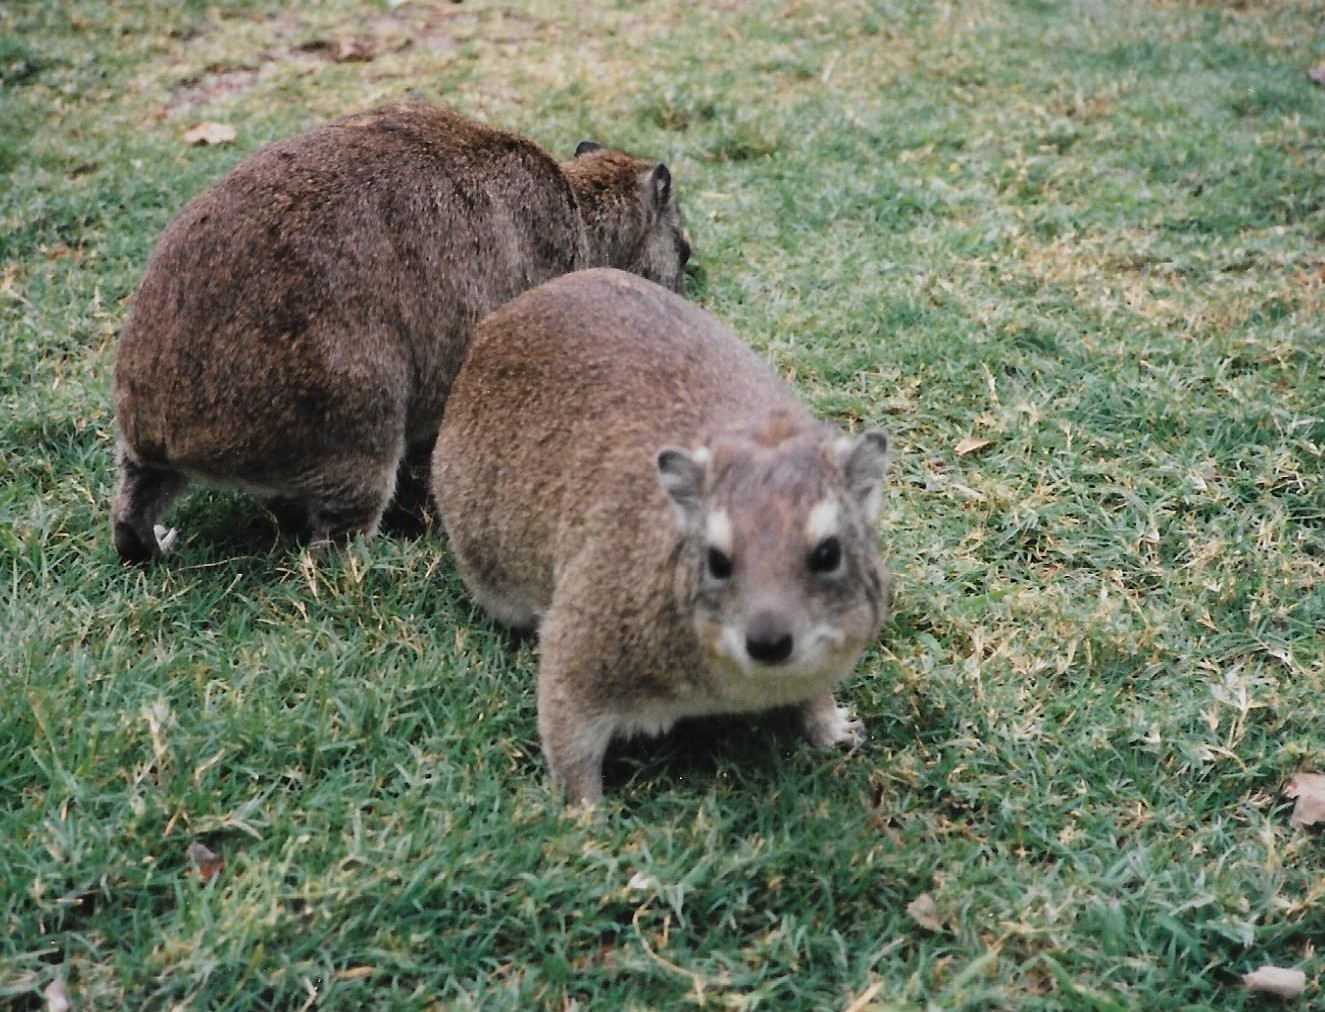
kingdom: Animalia
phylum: Chordata
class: Mammalia
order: Hyracoidea
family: Procaviidae
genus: Heterohyrax
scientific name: Heterohyrax brucei
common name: Bush hyrax
